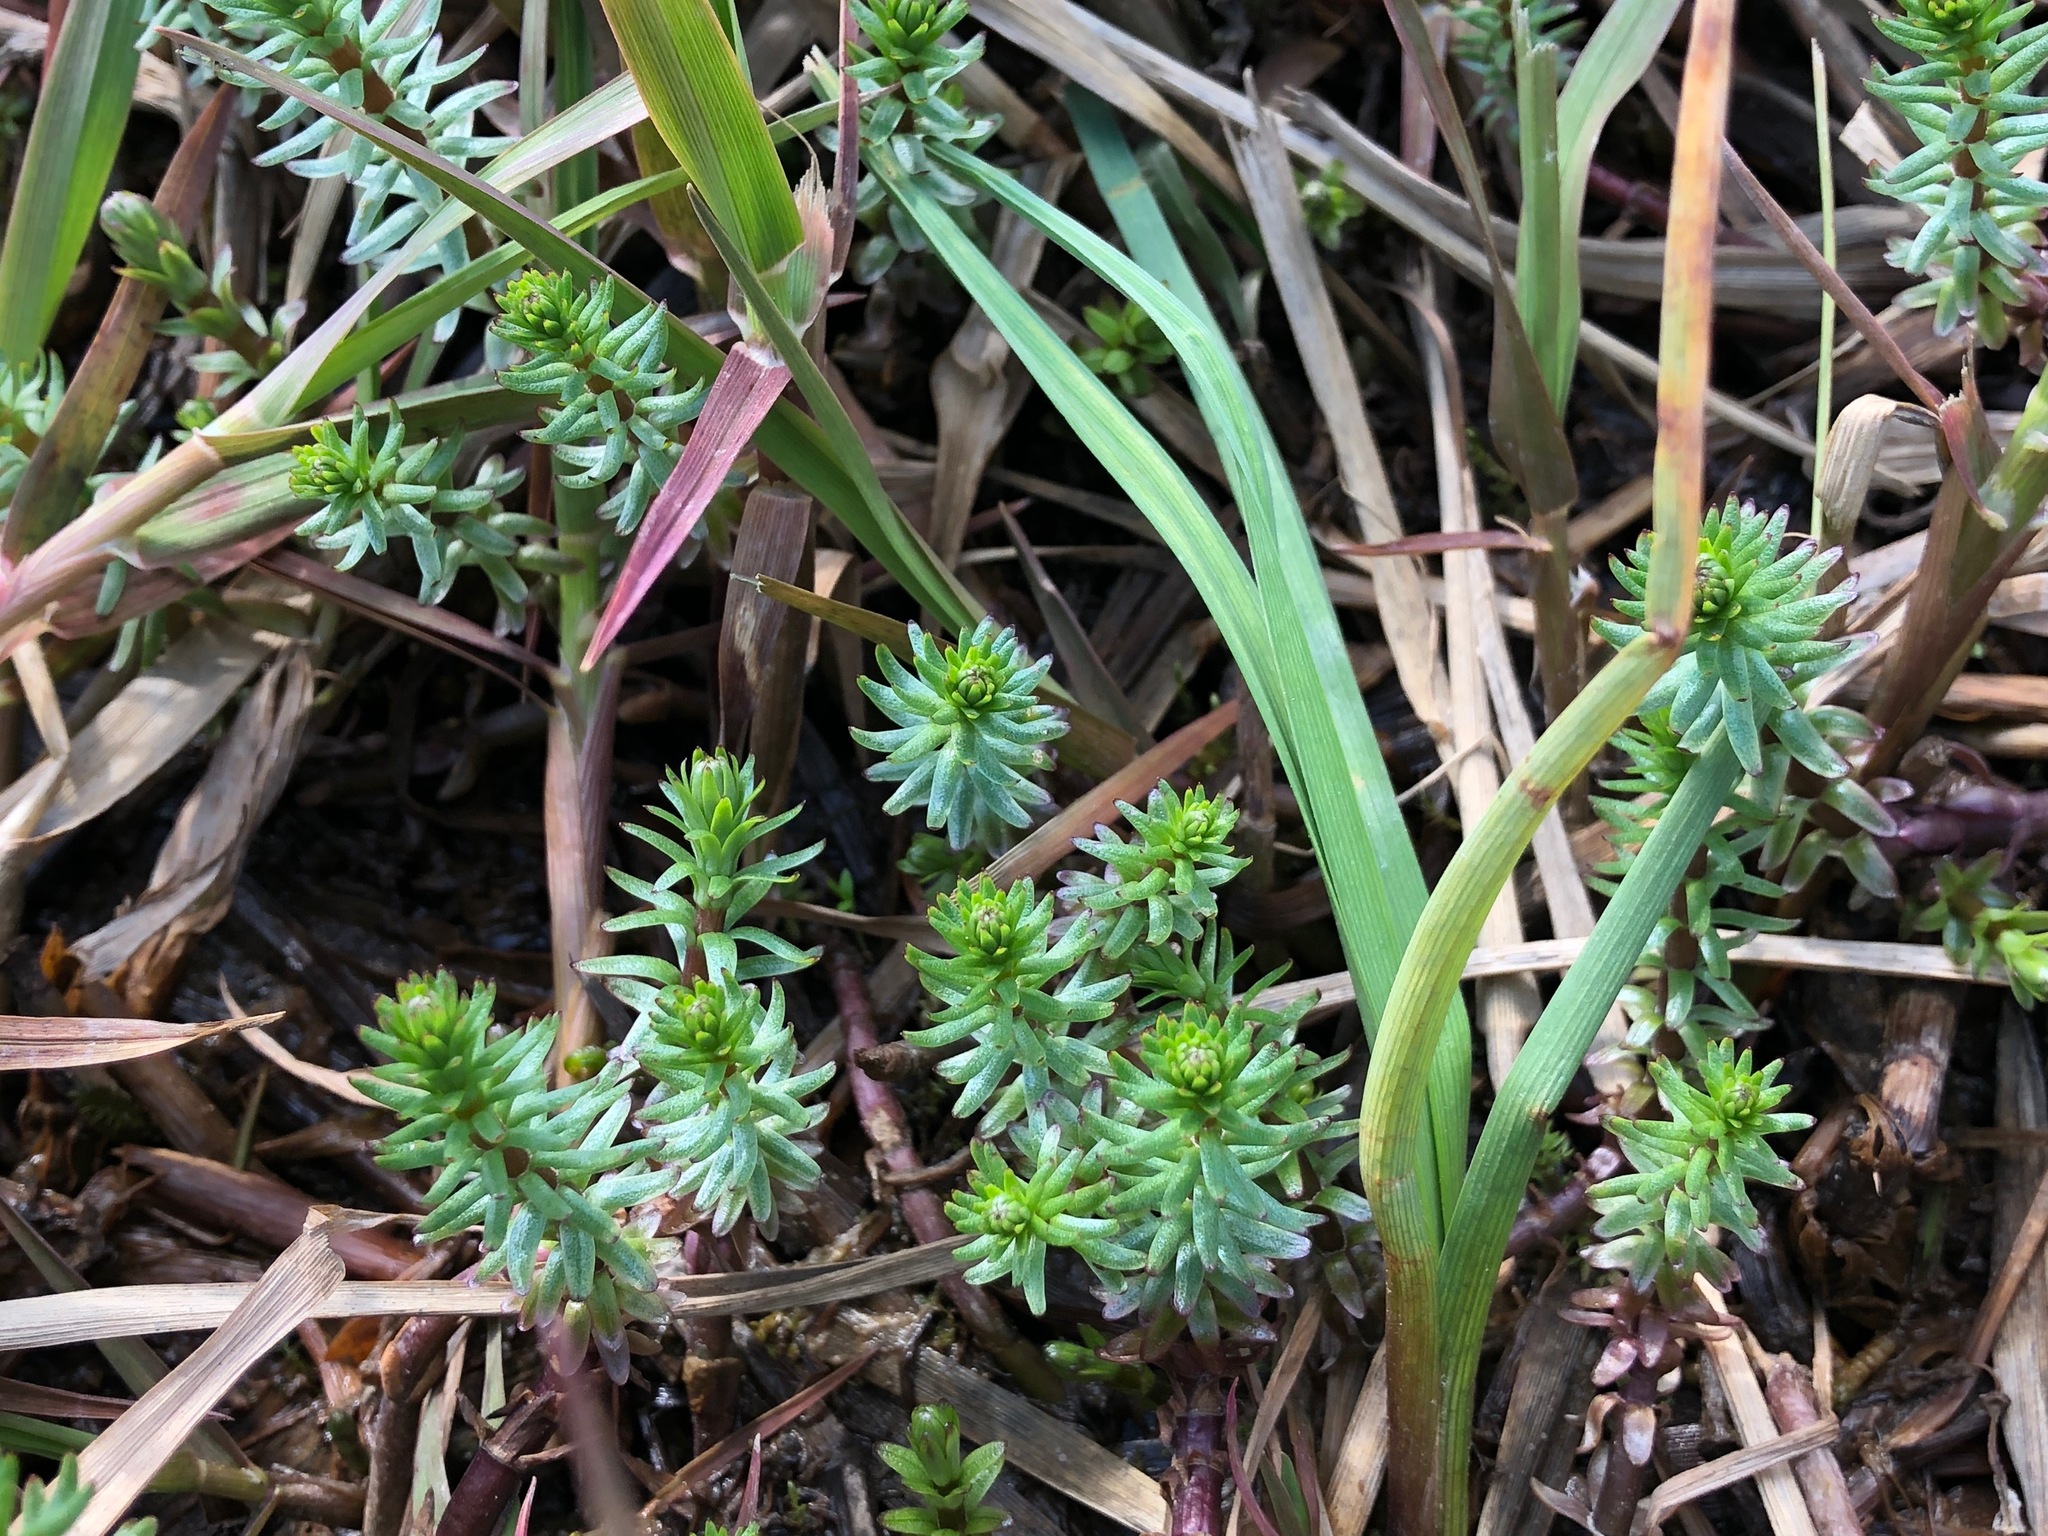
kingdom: Plantae
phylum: Tracheophyta
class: Magnoliopsida
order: Lamiales
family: Plantaginaceae
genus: Hippuris
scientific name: Hippuris vulgaris
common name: Mare's-tail
